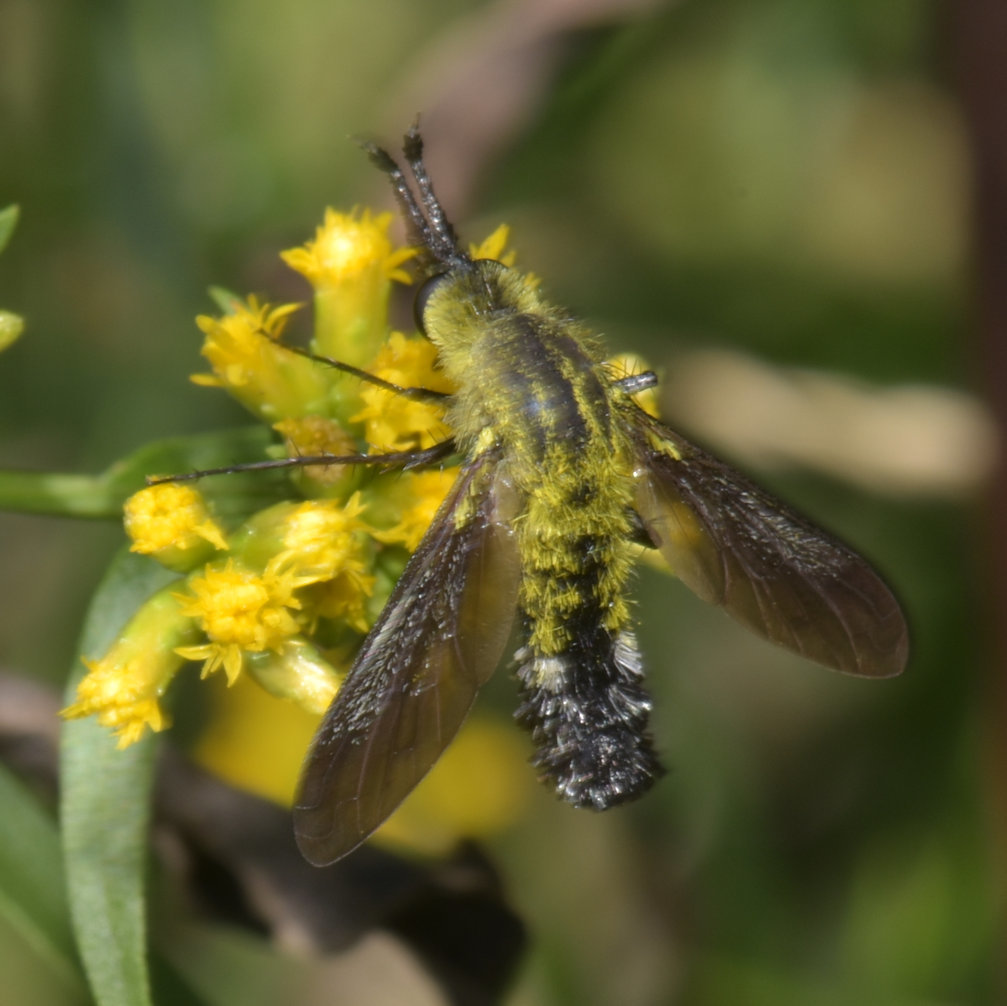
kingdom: Animalia
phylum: Arthropoda
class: Insecta
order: Diptera
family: Bombyliidae
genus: Lepidophora
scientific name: Lepidophora lutea
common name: Hunchback bee fly
